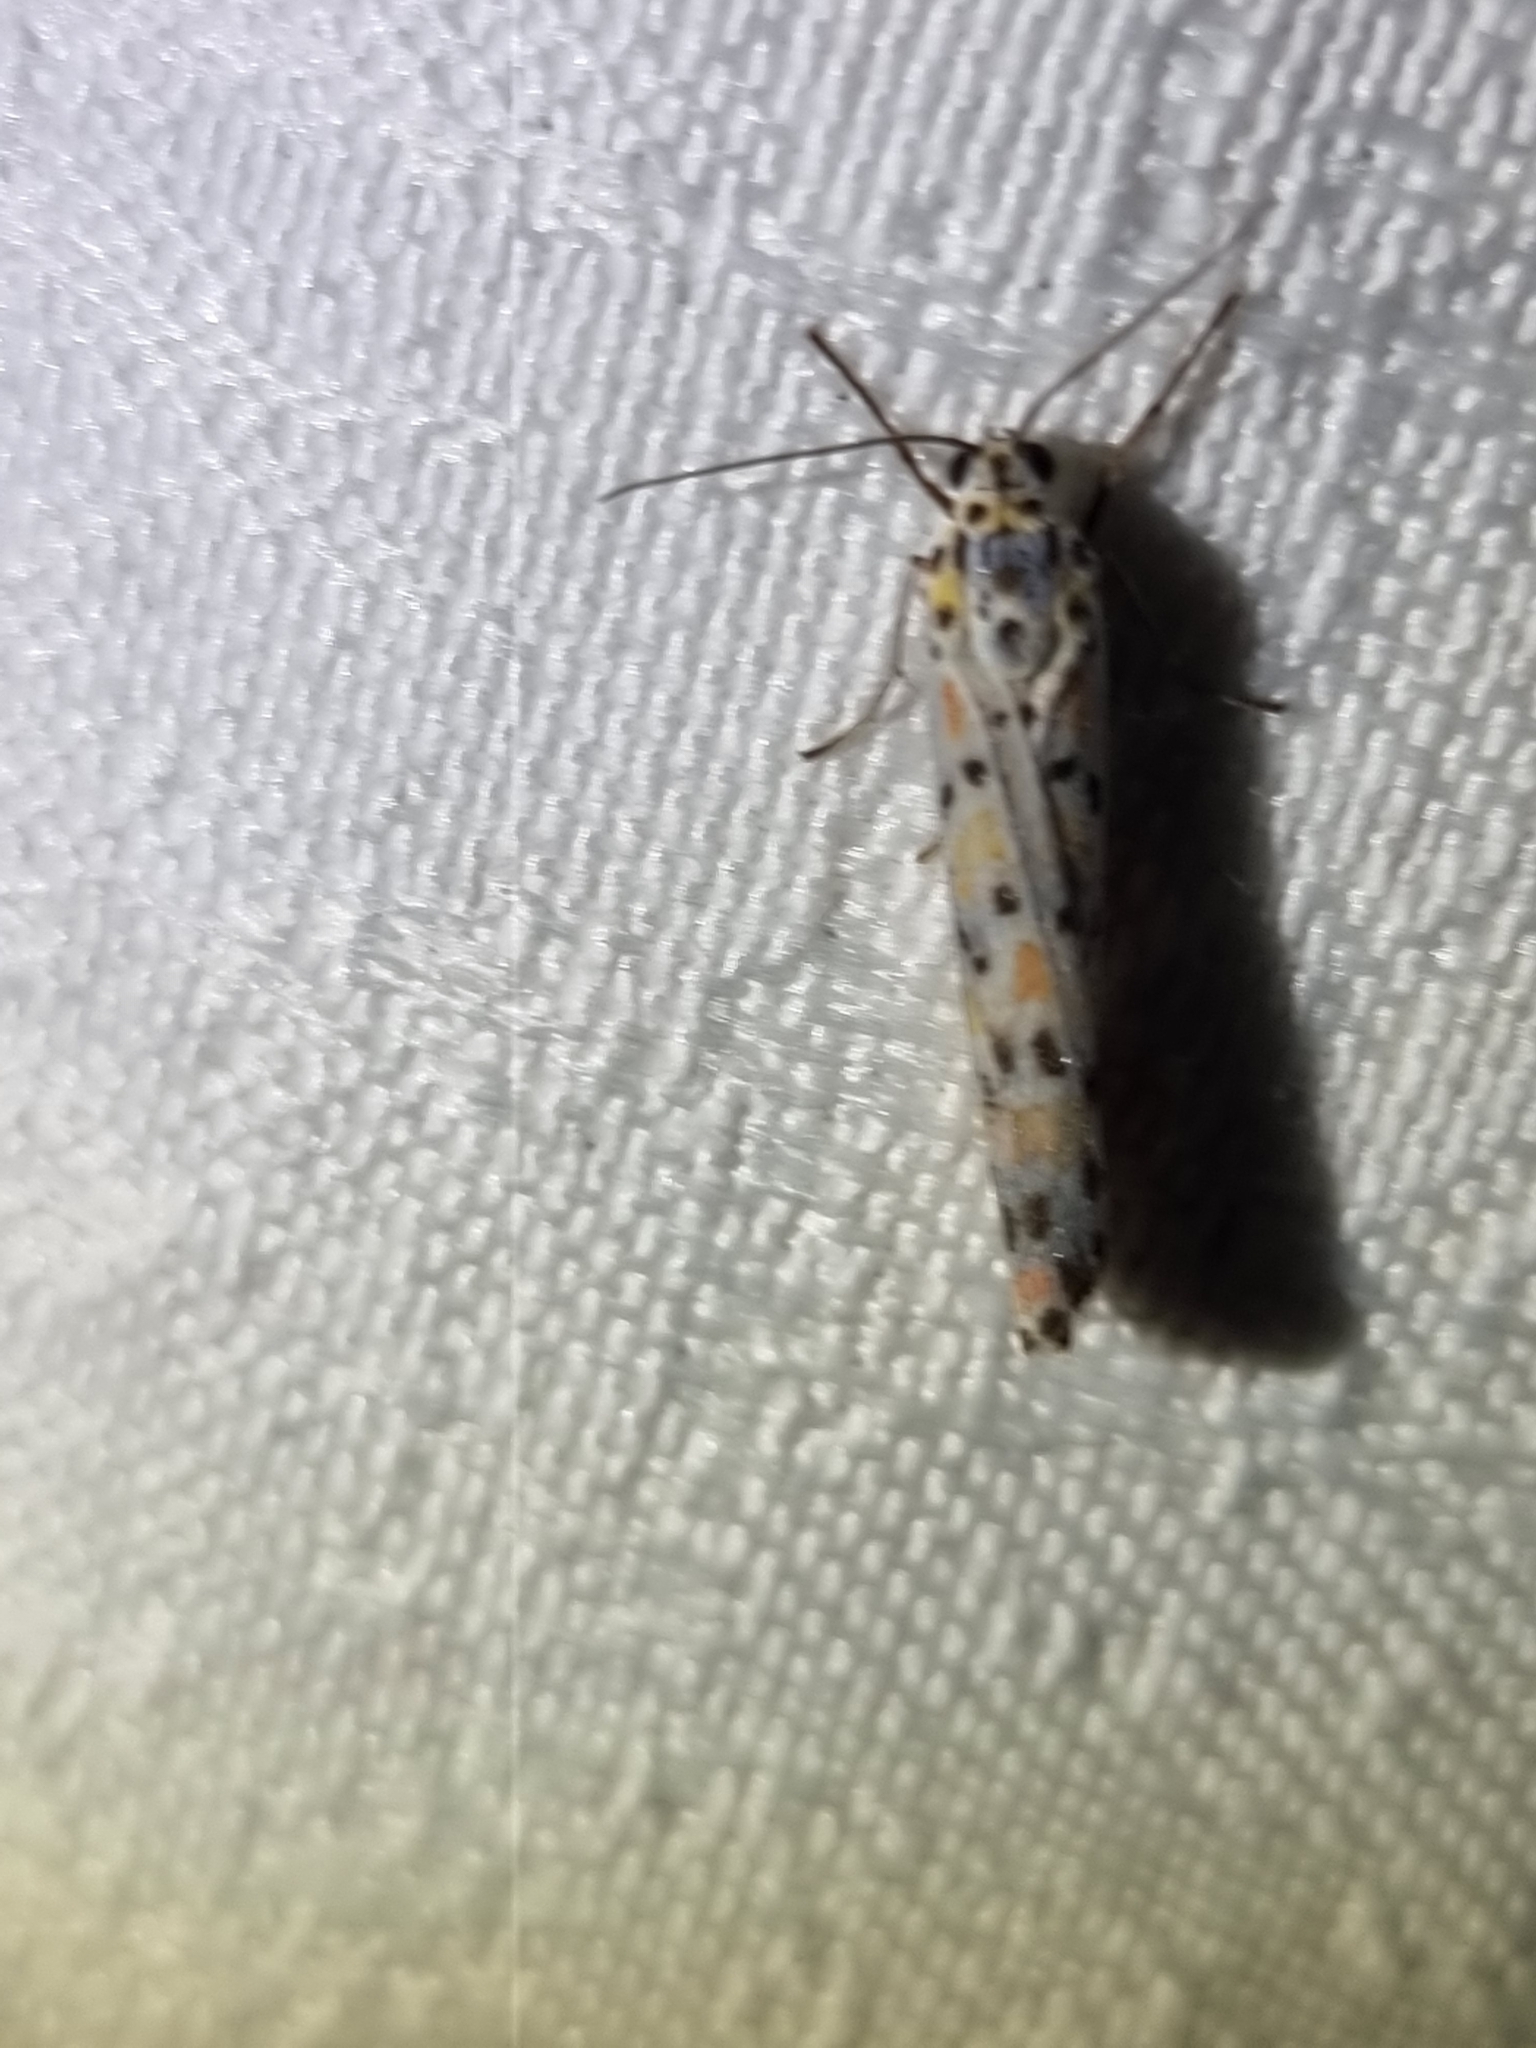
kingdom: Animalia
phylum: Arthropoda
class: Insecta
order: Lepidoptera
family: Erebidae
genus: Utetheisa
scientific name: Utetheisa lotrix
